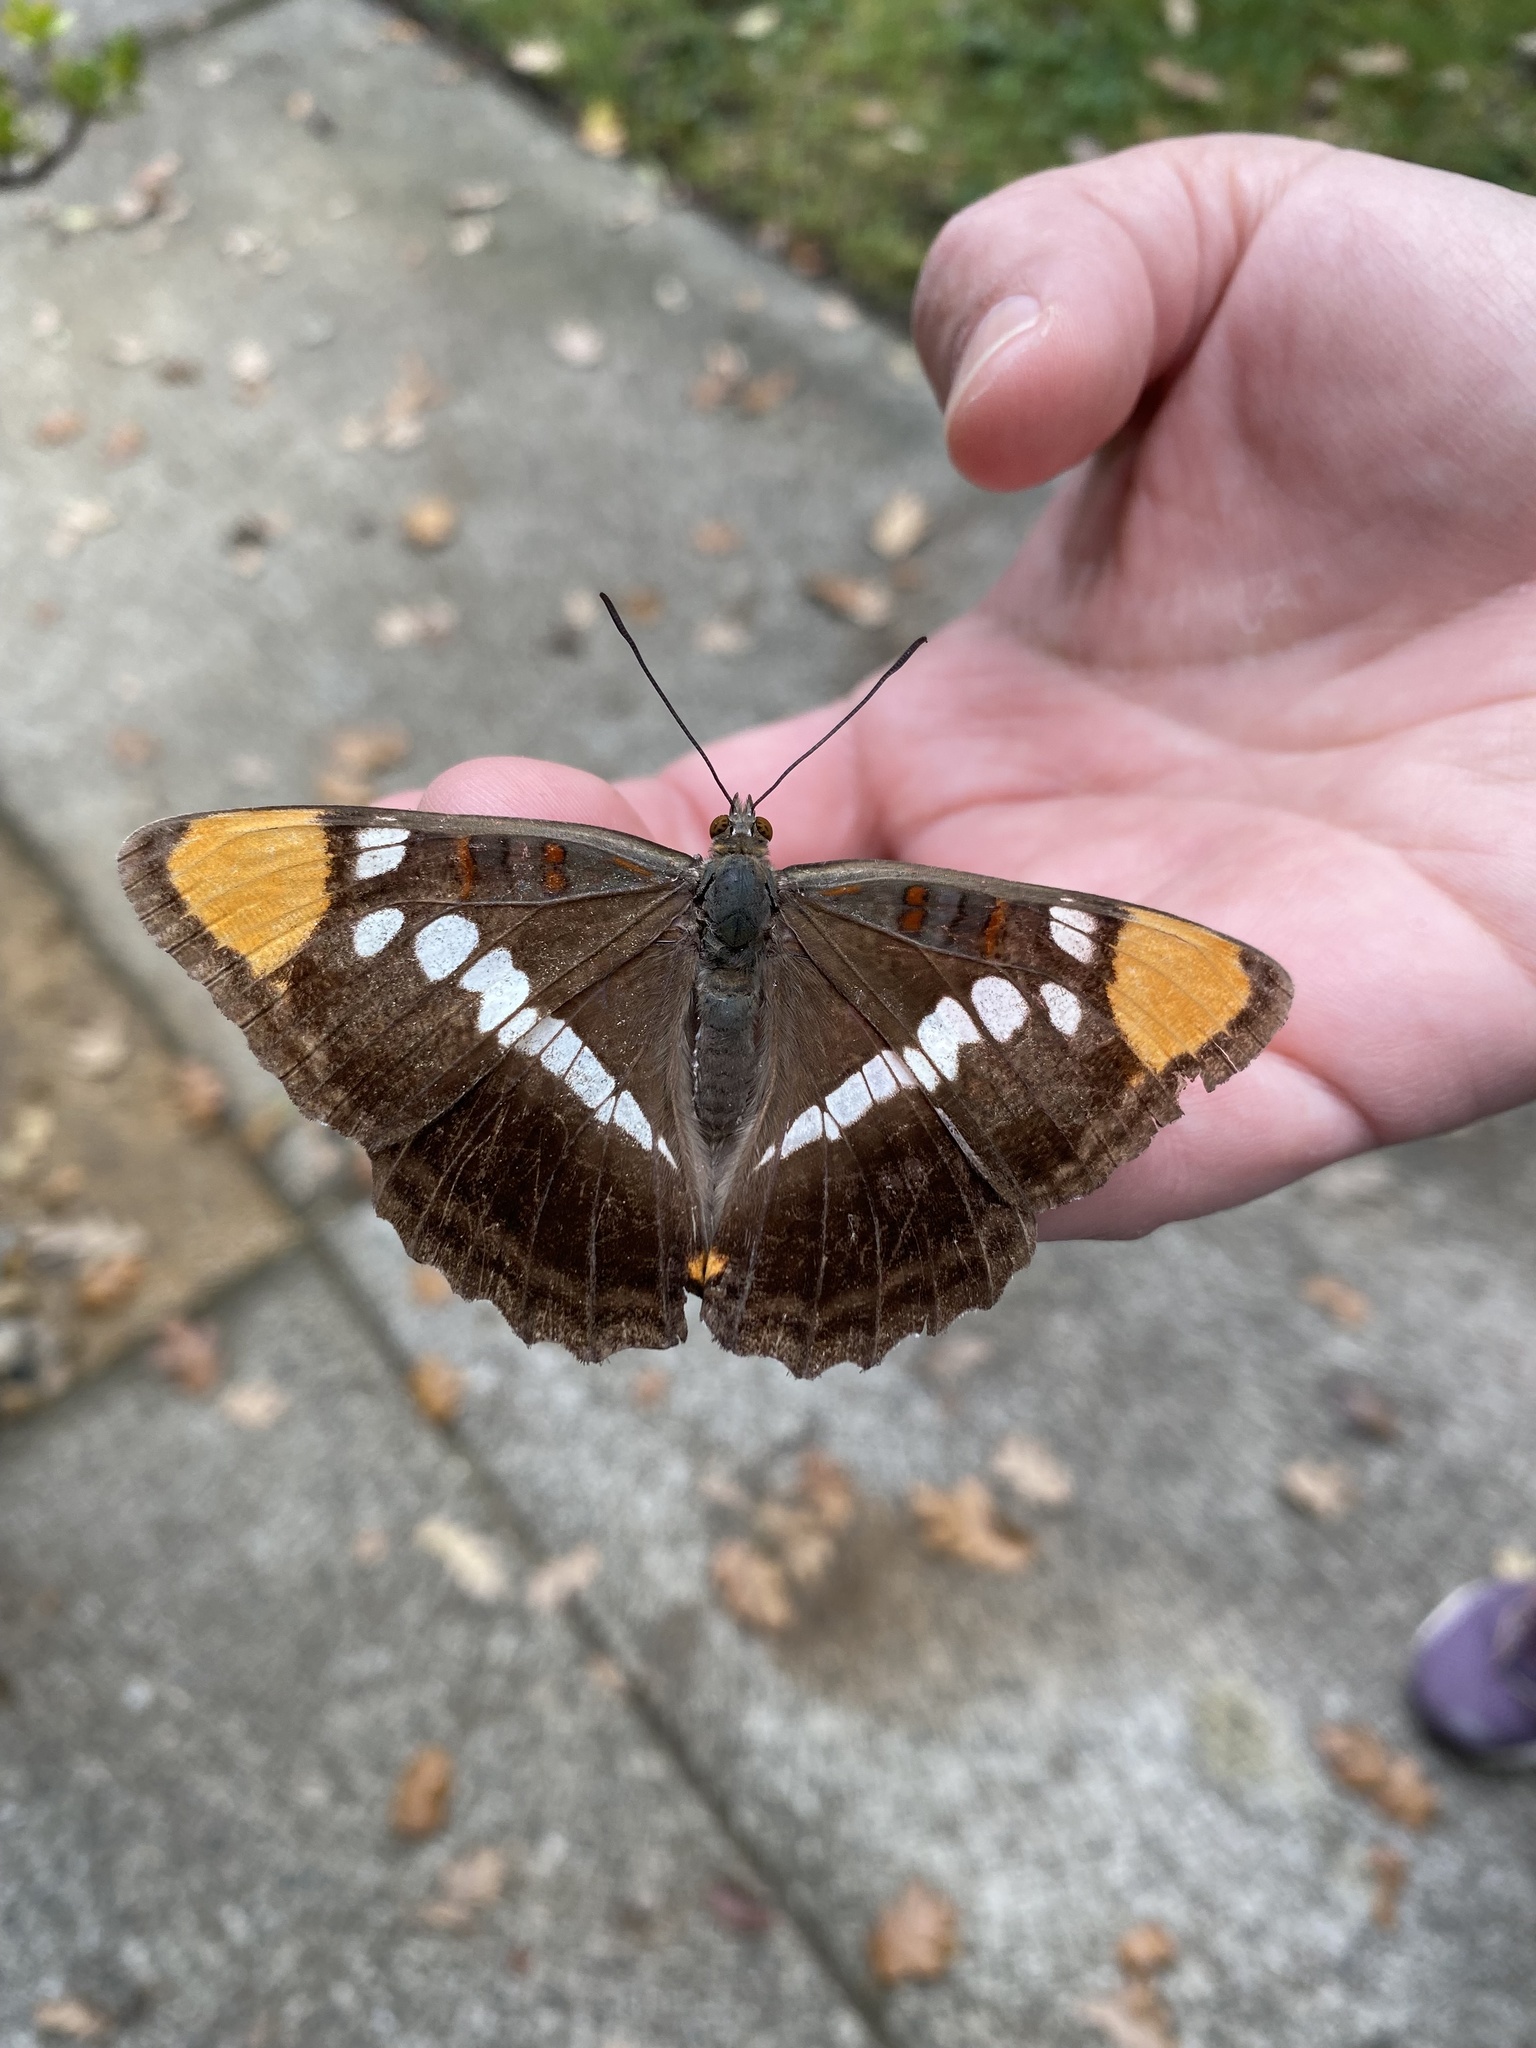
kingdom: Animalia
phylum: Arthropoda
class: Insecta
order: Lepidoptera
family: Nymphalidae
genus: Limenitis
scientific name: Limenitis bredowii
